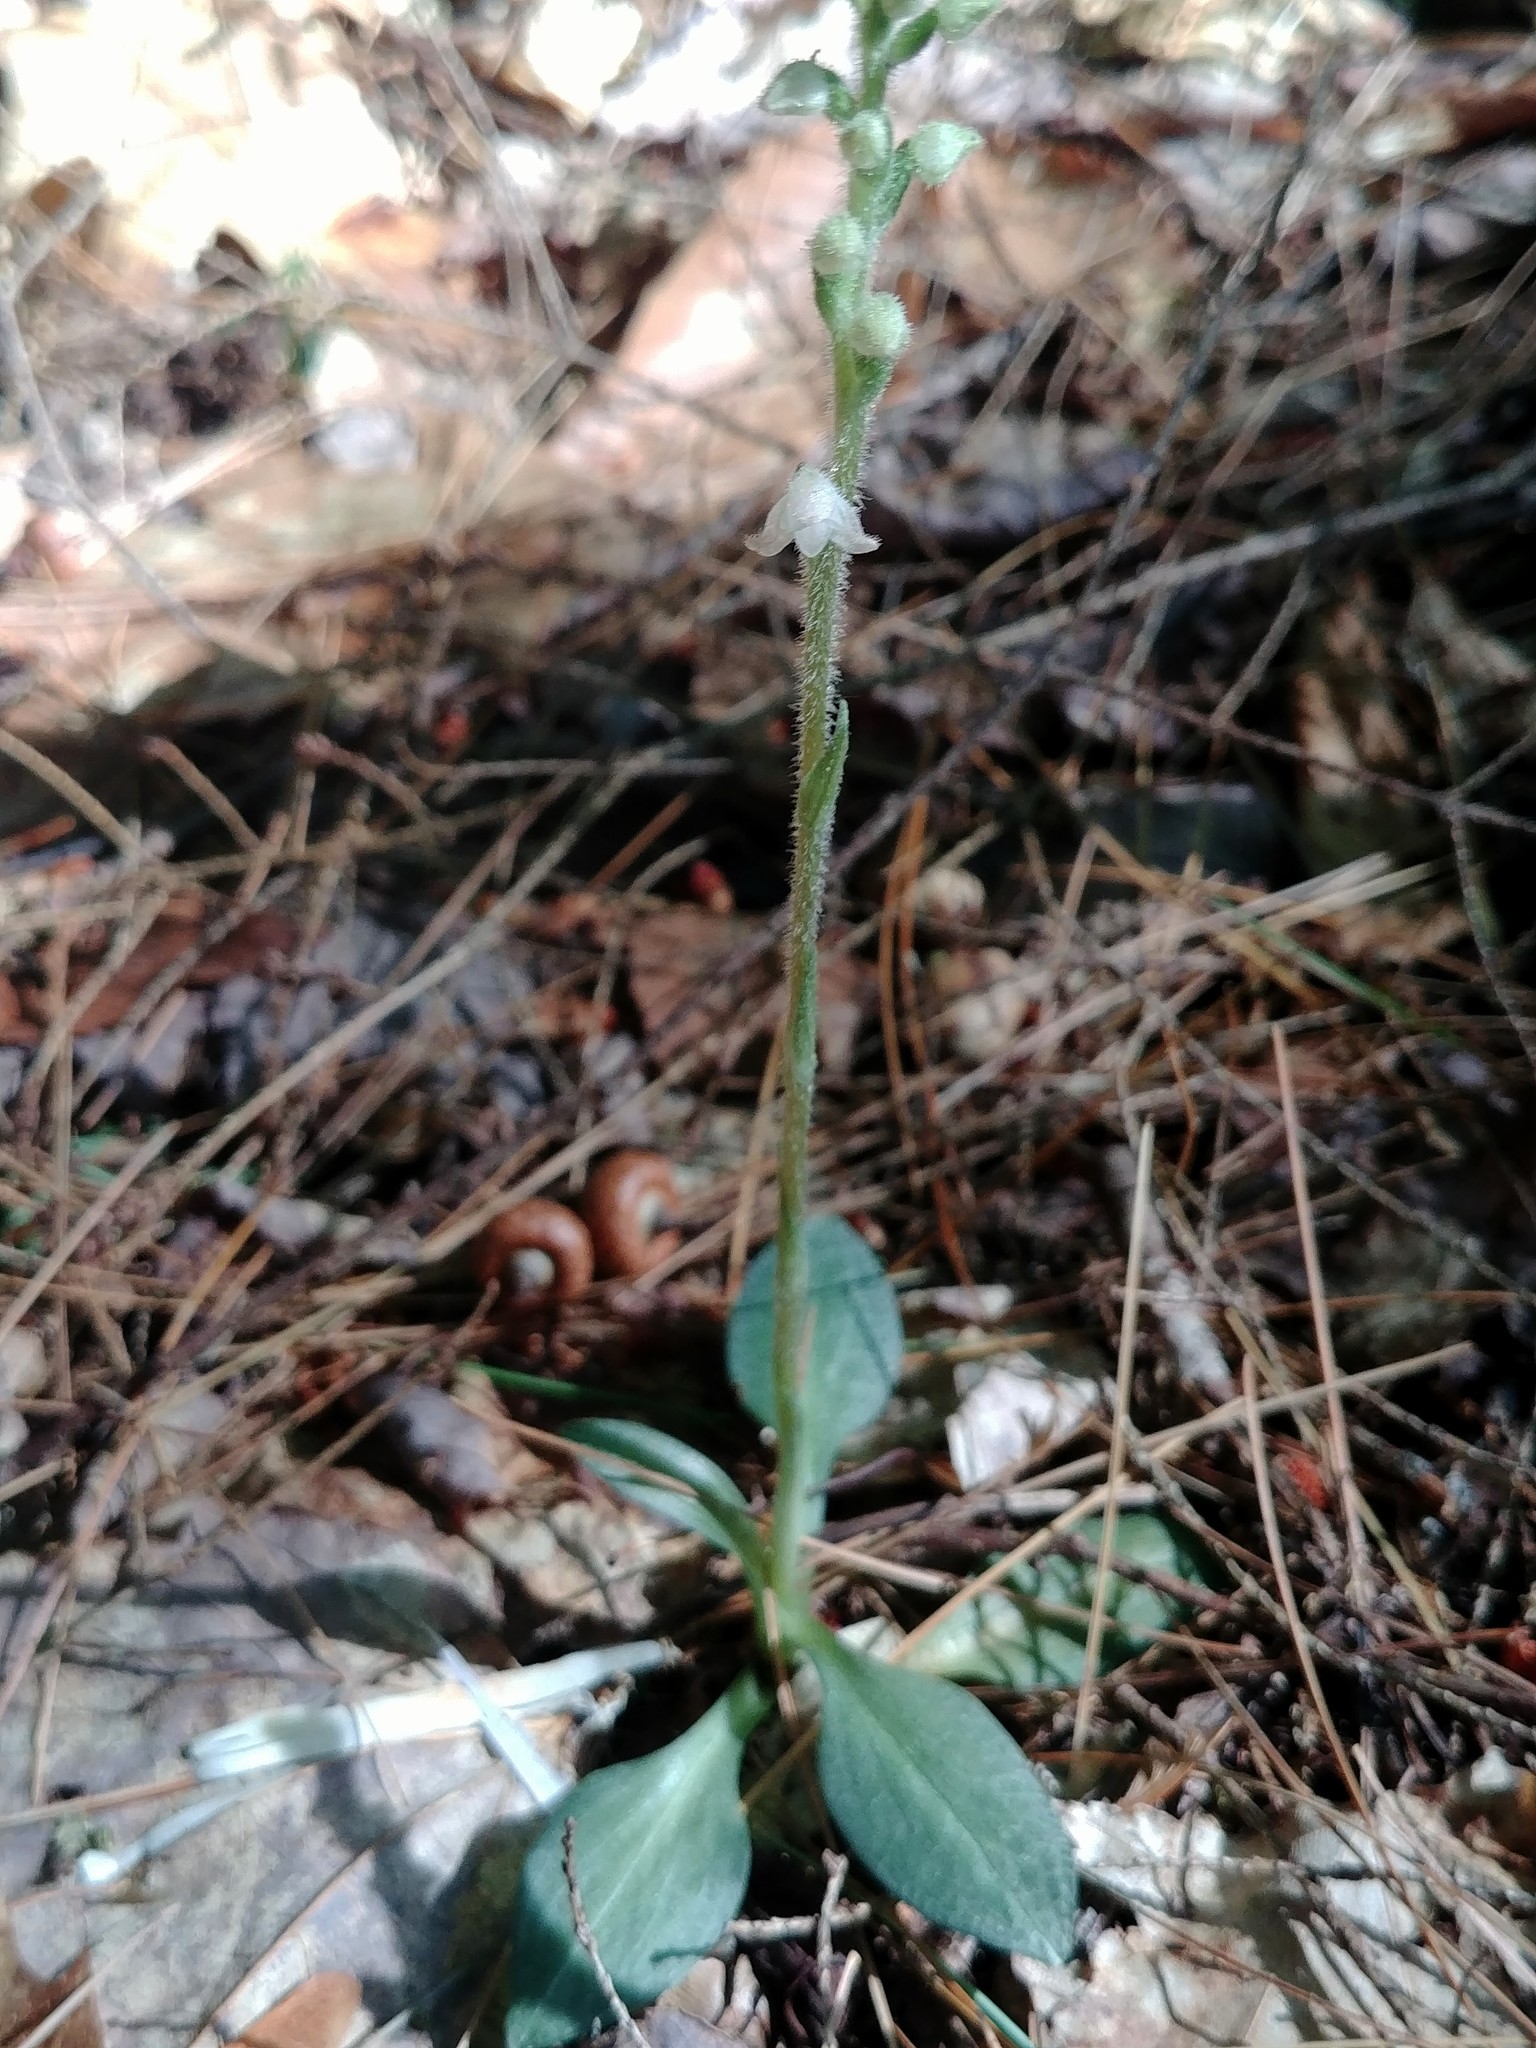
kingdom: Plantae
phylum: Tracheophyta
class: Liliopsida
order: Asparagales
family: Orchidaceae
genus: Goodyera
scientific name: Goodyera tesselata
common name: Checkered rattlesnake-plantain
